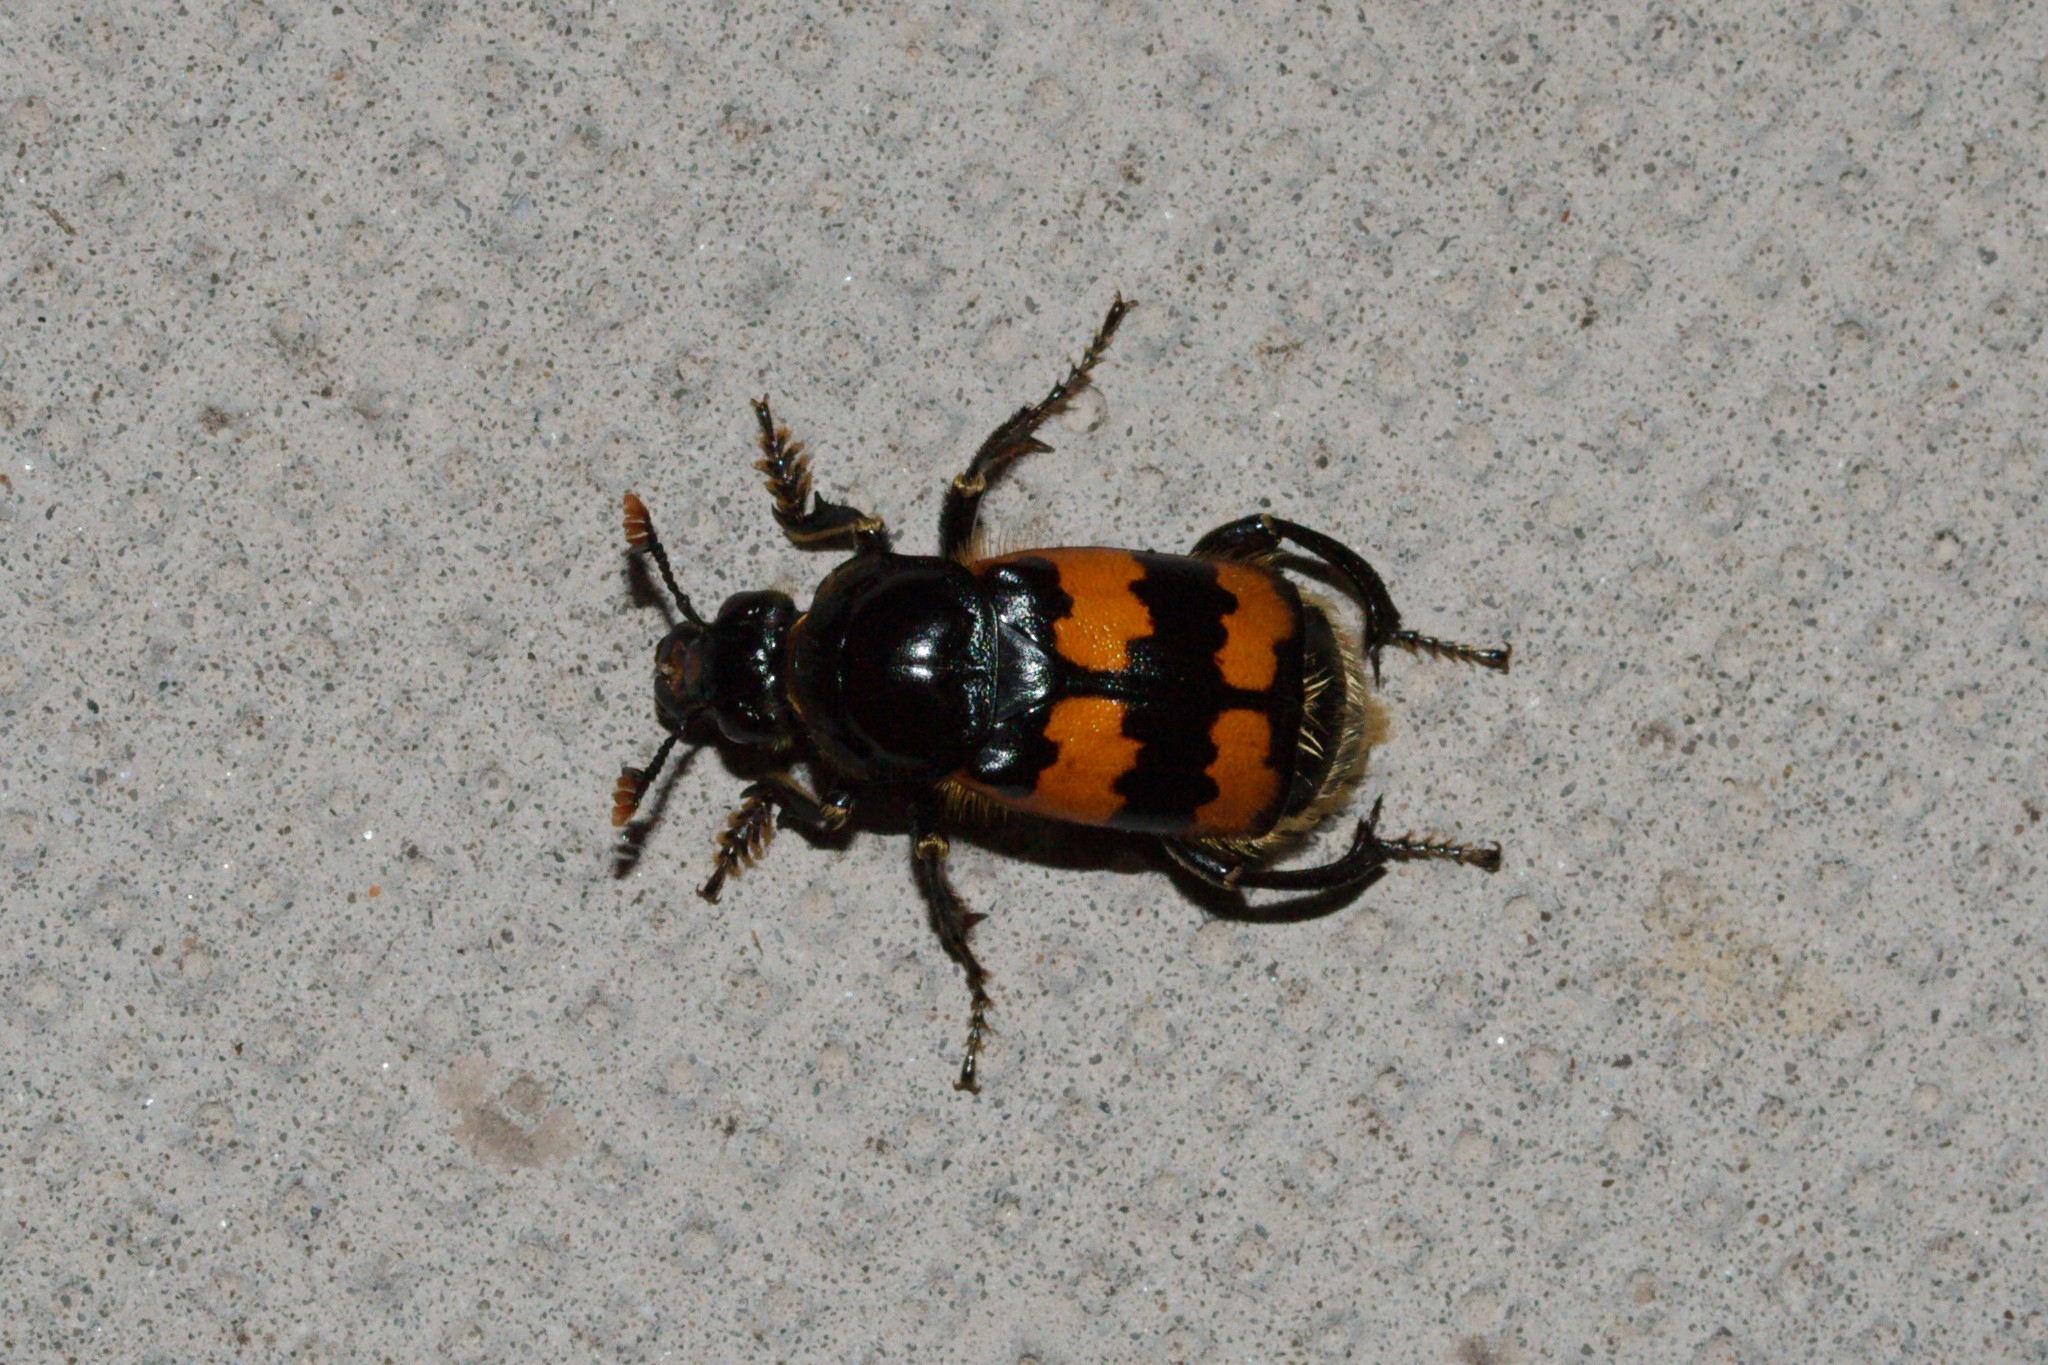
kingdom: Animalia
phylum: Arthropoda
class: Insecta
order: Coleoptera
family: Staphylinidae
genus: Nicrophorus
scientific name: Nicrophorus vespillo
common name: Common burying beetle
